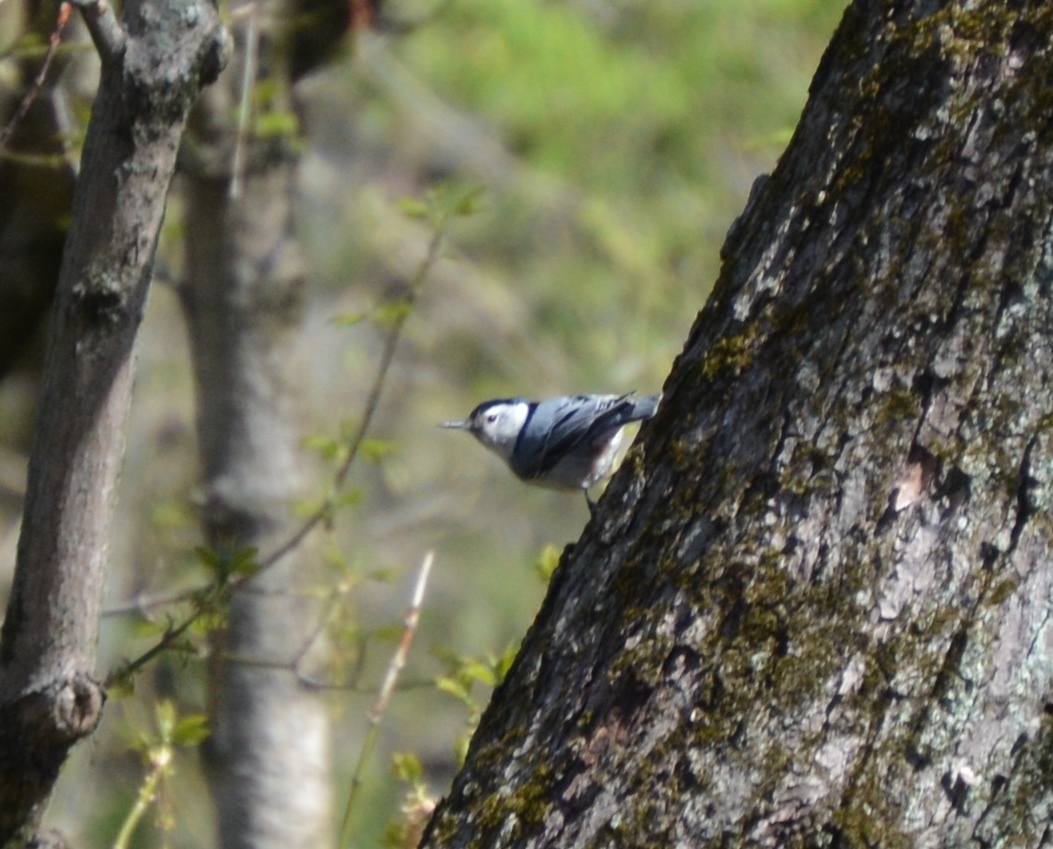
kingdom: Animalia
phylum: Chordata
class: Aves
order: Passeriformes
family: Sittidae
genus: Sitta
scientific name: Sitta carolinensis
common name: White-breasted nuthatch
